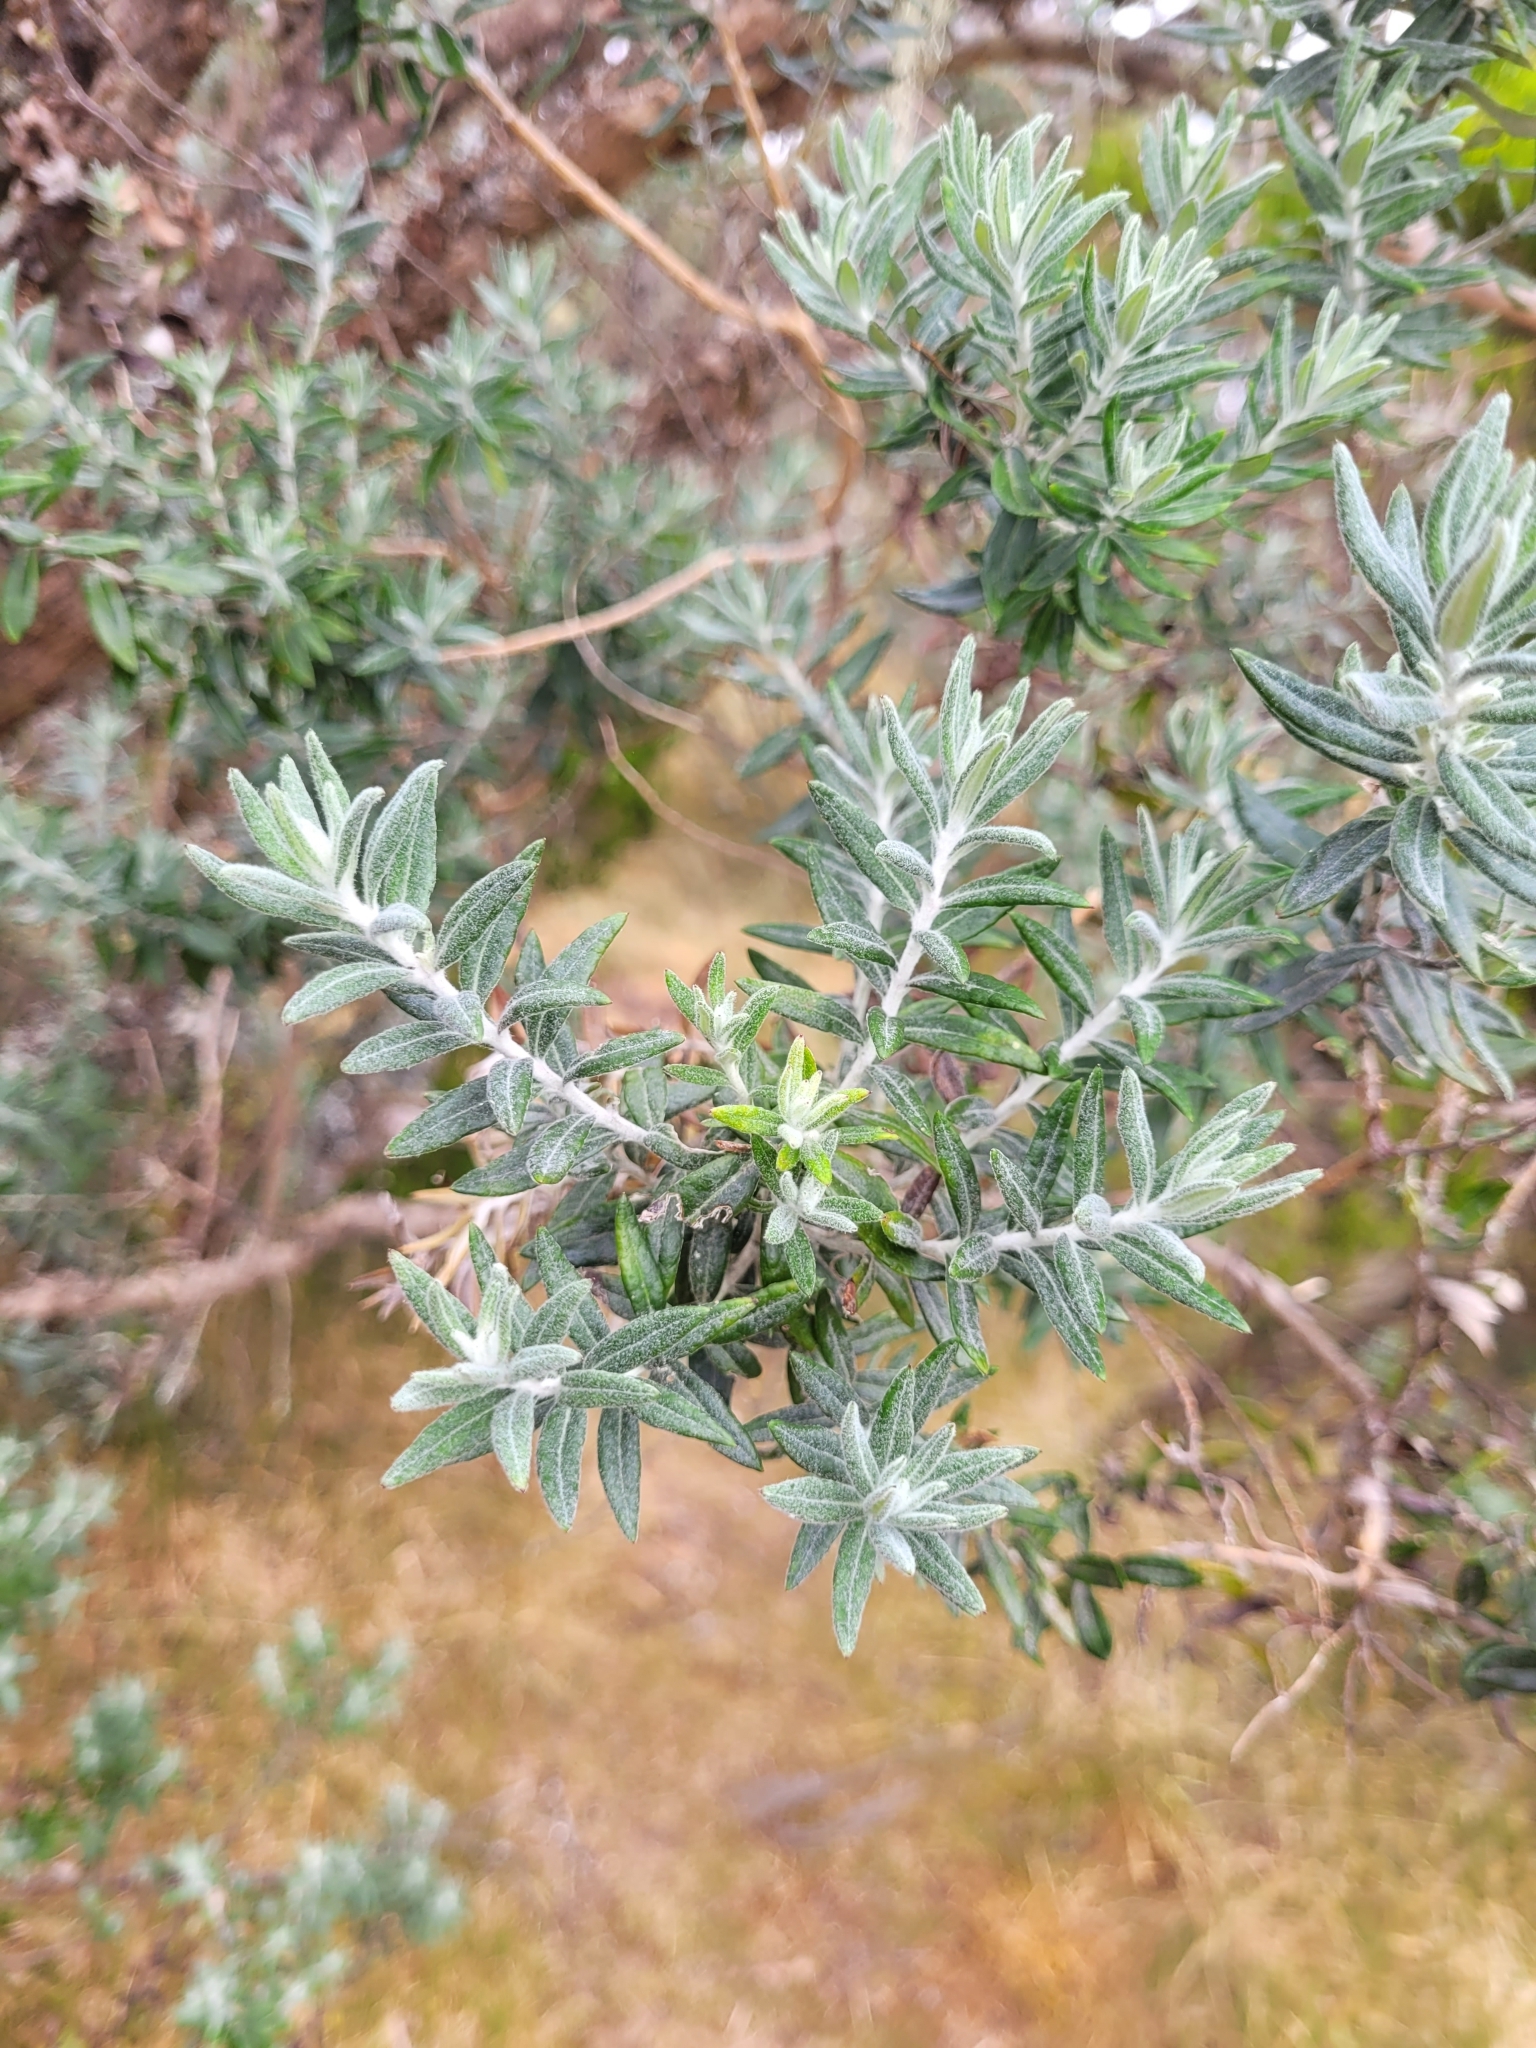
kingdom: Plantae
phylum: Tracheophyta
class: Magnoliopsida
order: Asterales
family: Asteraceae
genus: Hubertia
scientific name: Hubertia tomentosa
